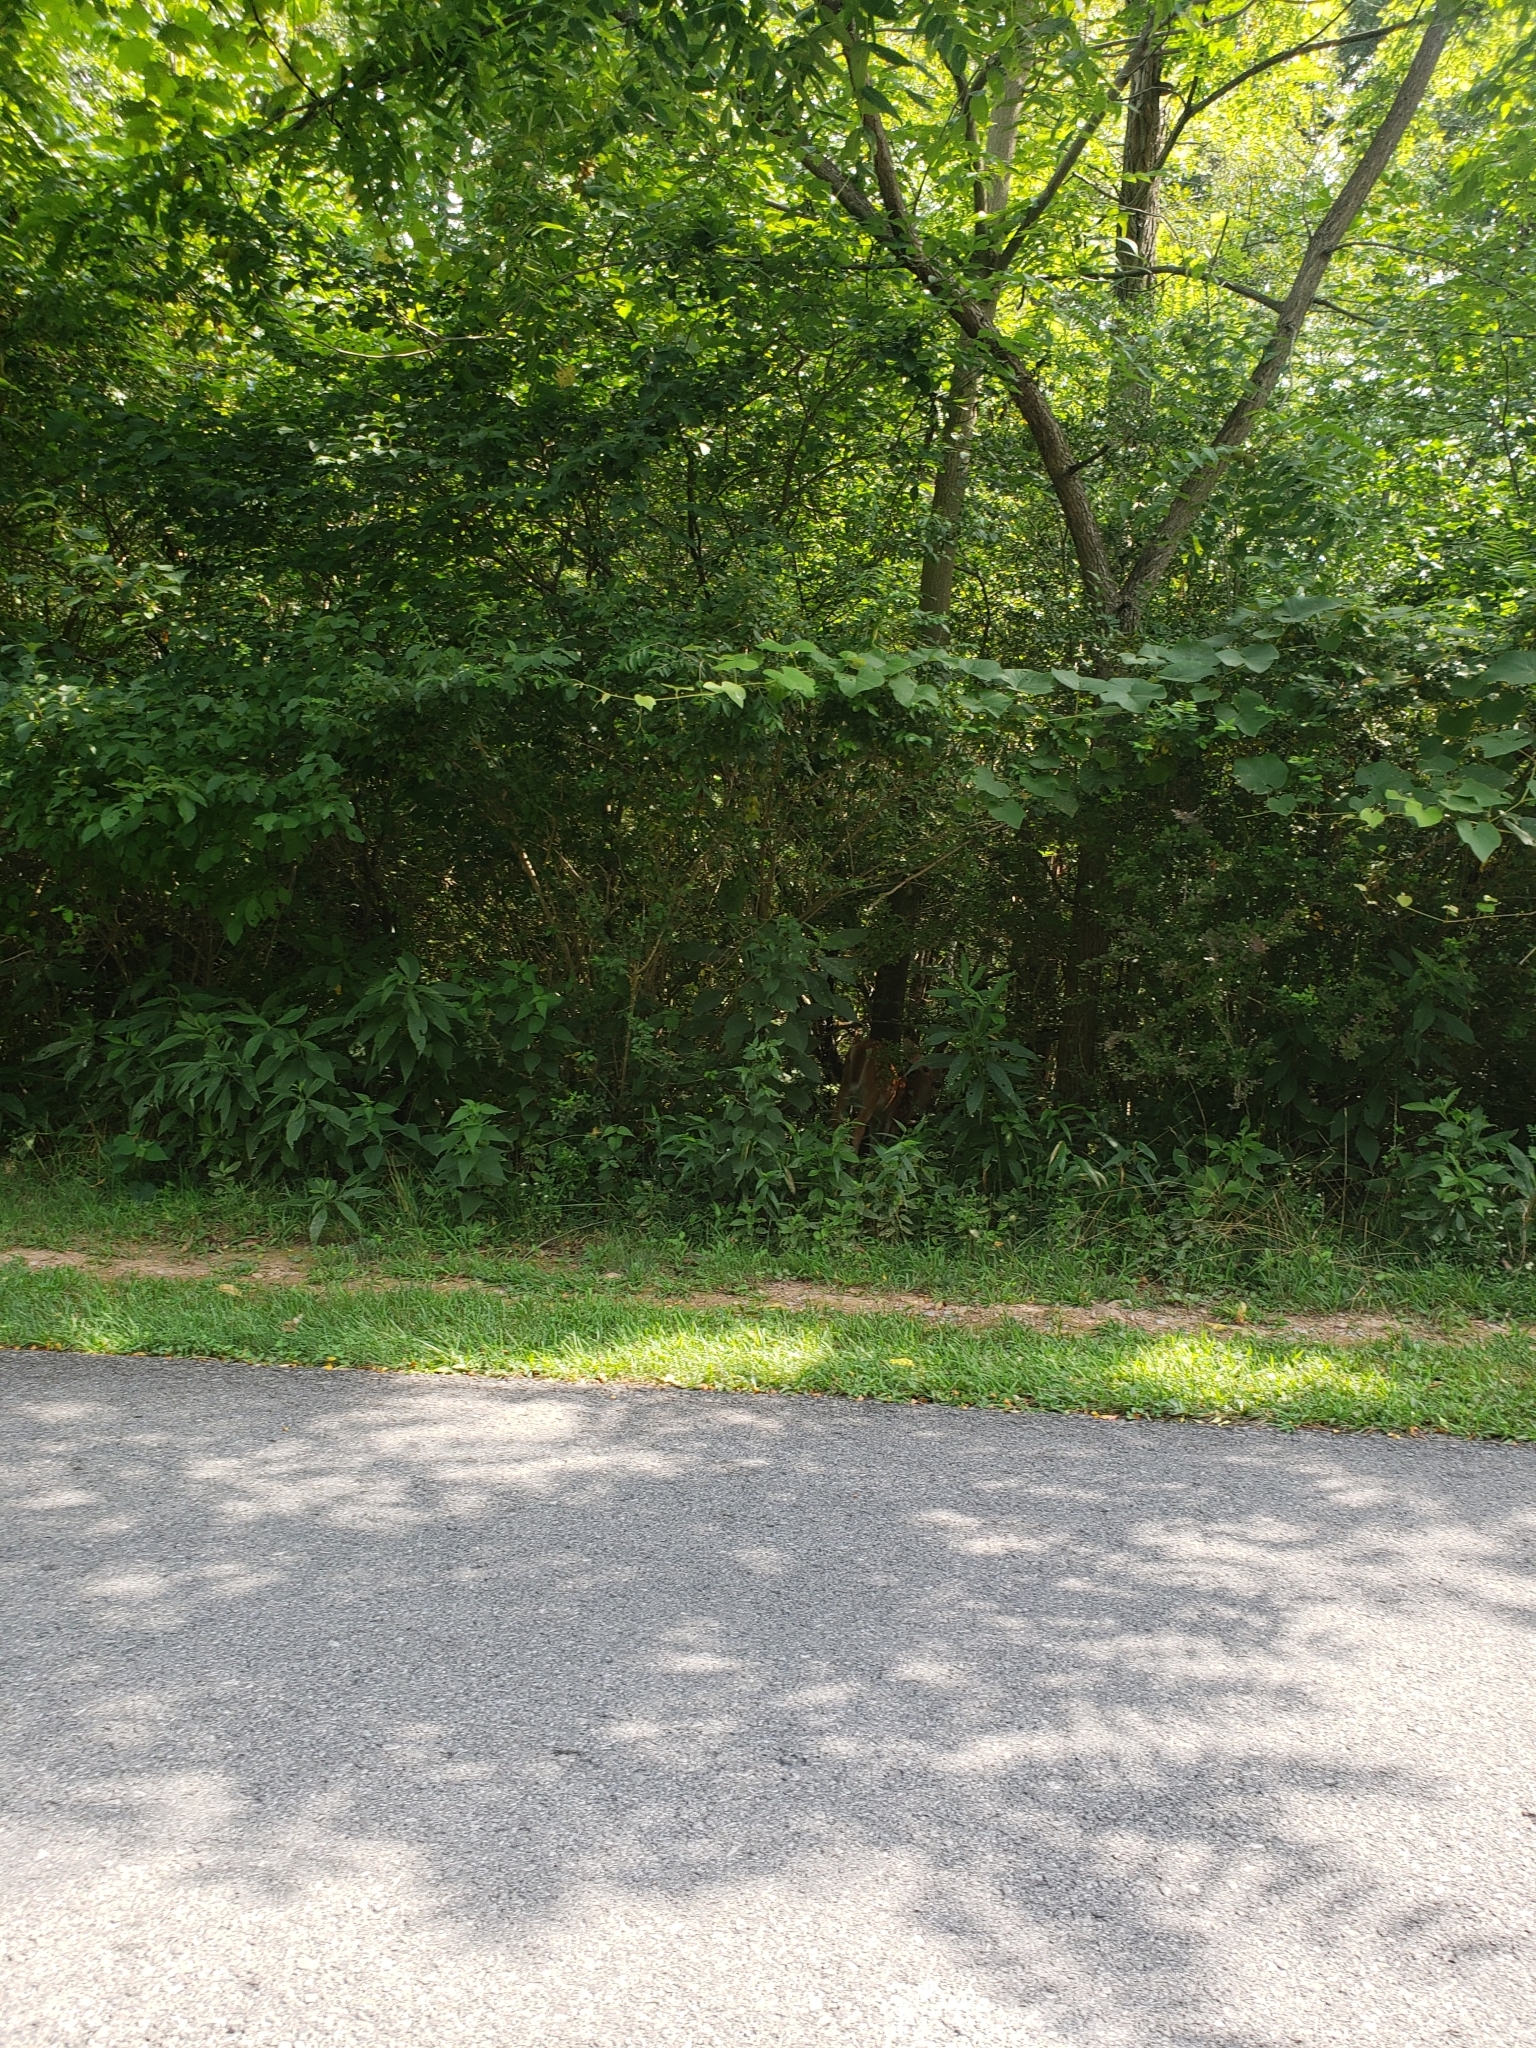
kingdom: Animalia
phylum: Chordata
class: Mammalia
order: Artiodactyla
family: Cervidae
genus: Odocoileus
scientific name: Odocoileus virginianus
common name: White-tailed deer
